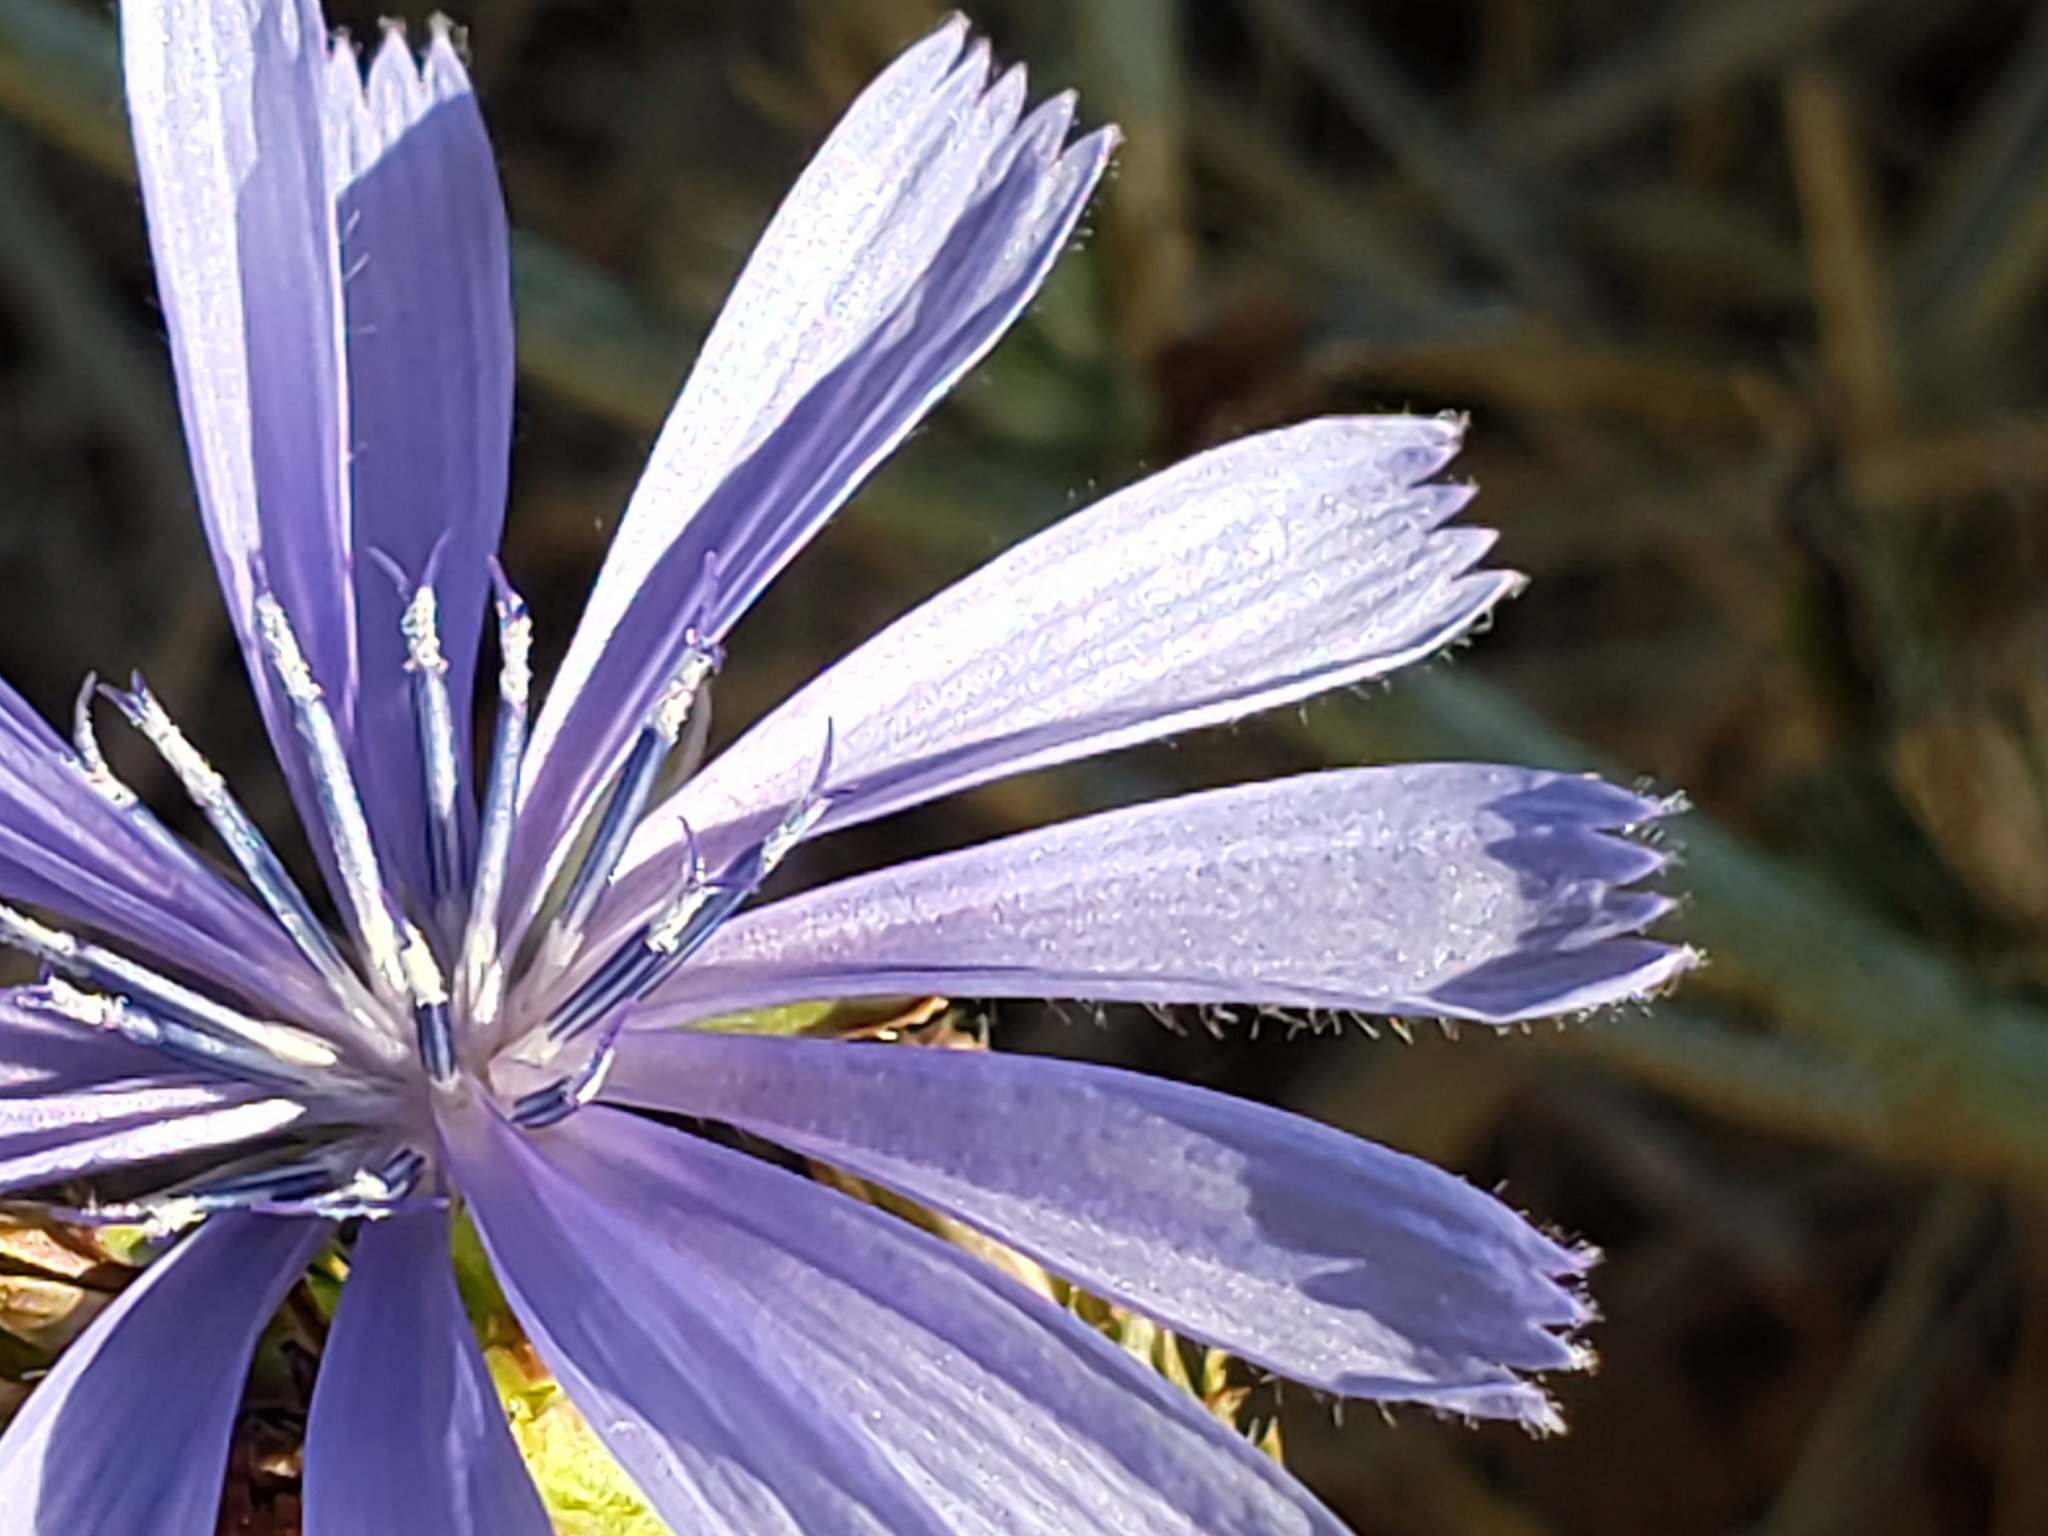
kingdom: Plantae
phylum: Tracheophyta
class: Magnoliopsida
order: Asterales
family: Asteraceae
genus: Cichorium
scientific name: Cichorium intybus
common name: Chicory
